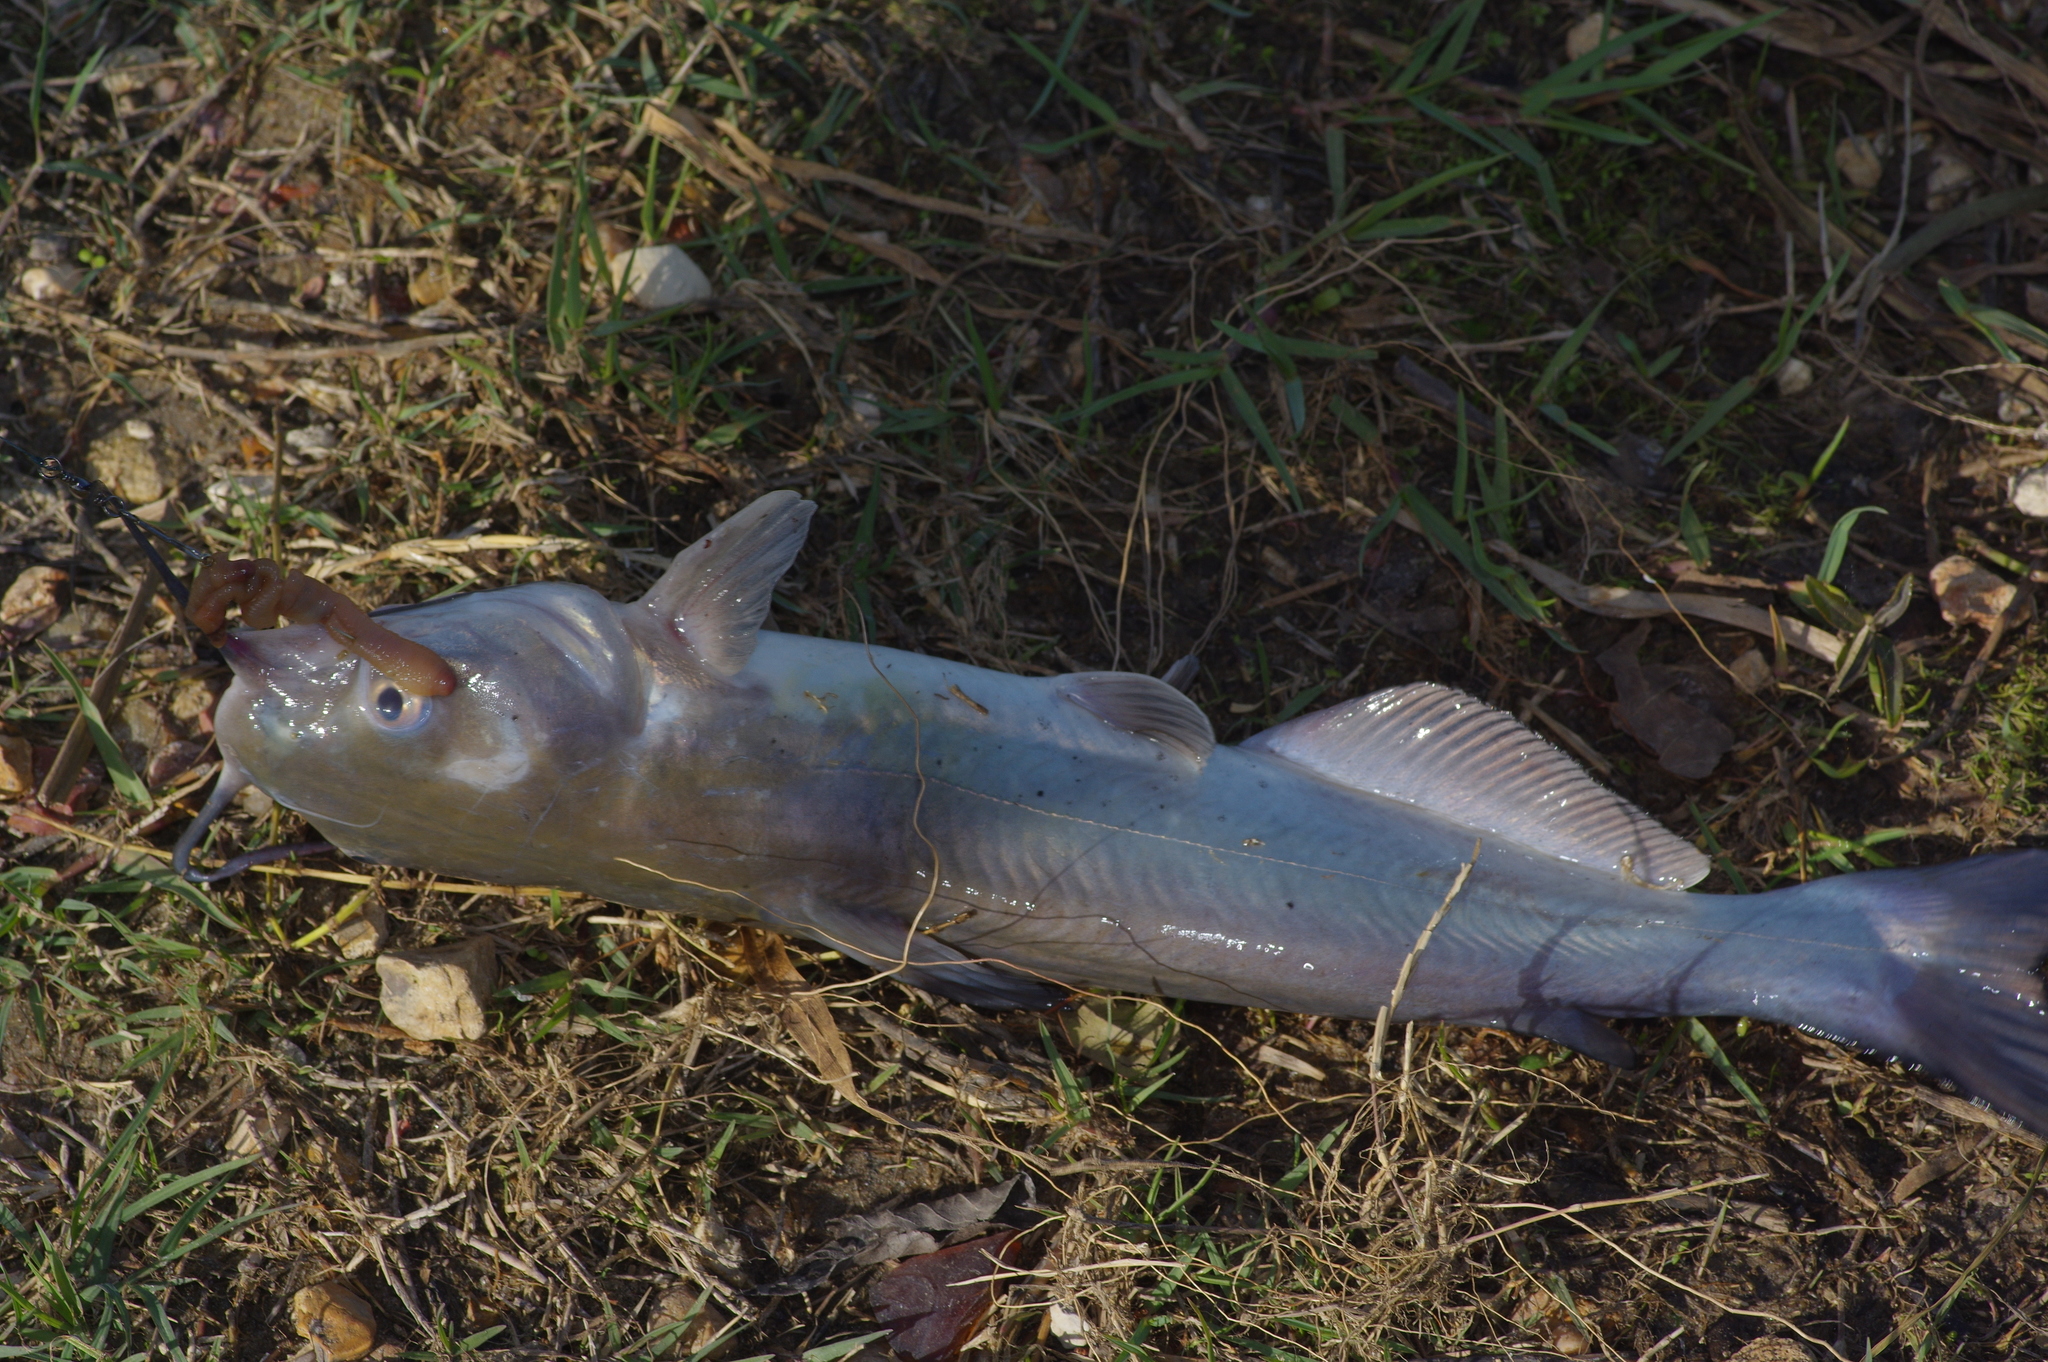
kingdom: Animalia
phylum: Chordata
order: Siluriformes
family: Ictaluridae
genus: Ictalurus
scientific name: Ictalurus punctatus
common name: Channel catfish
